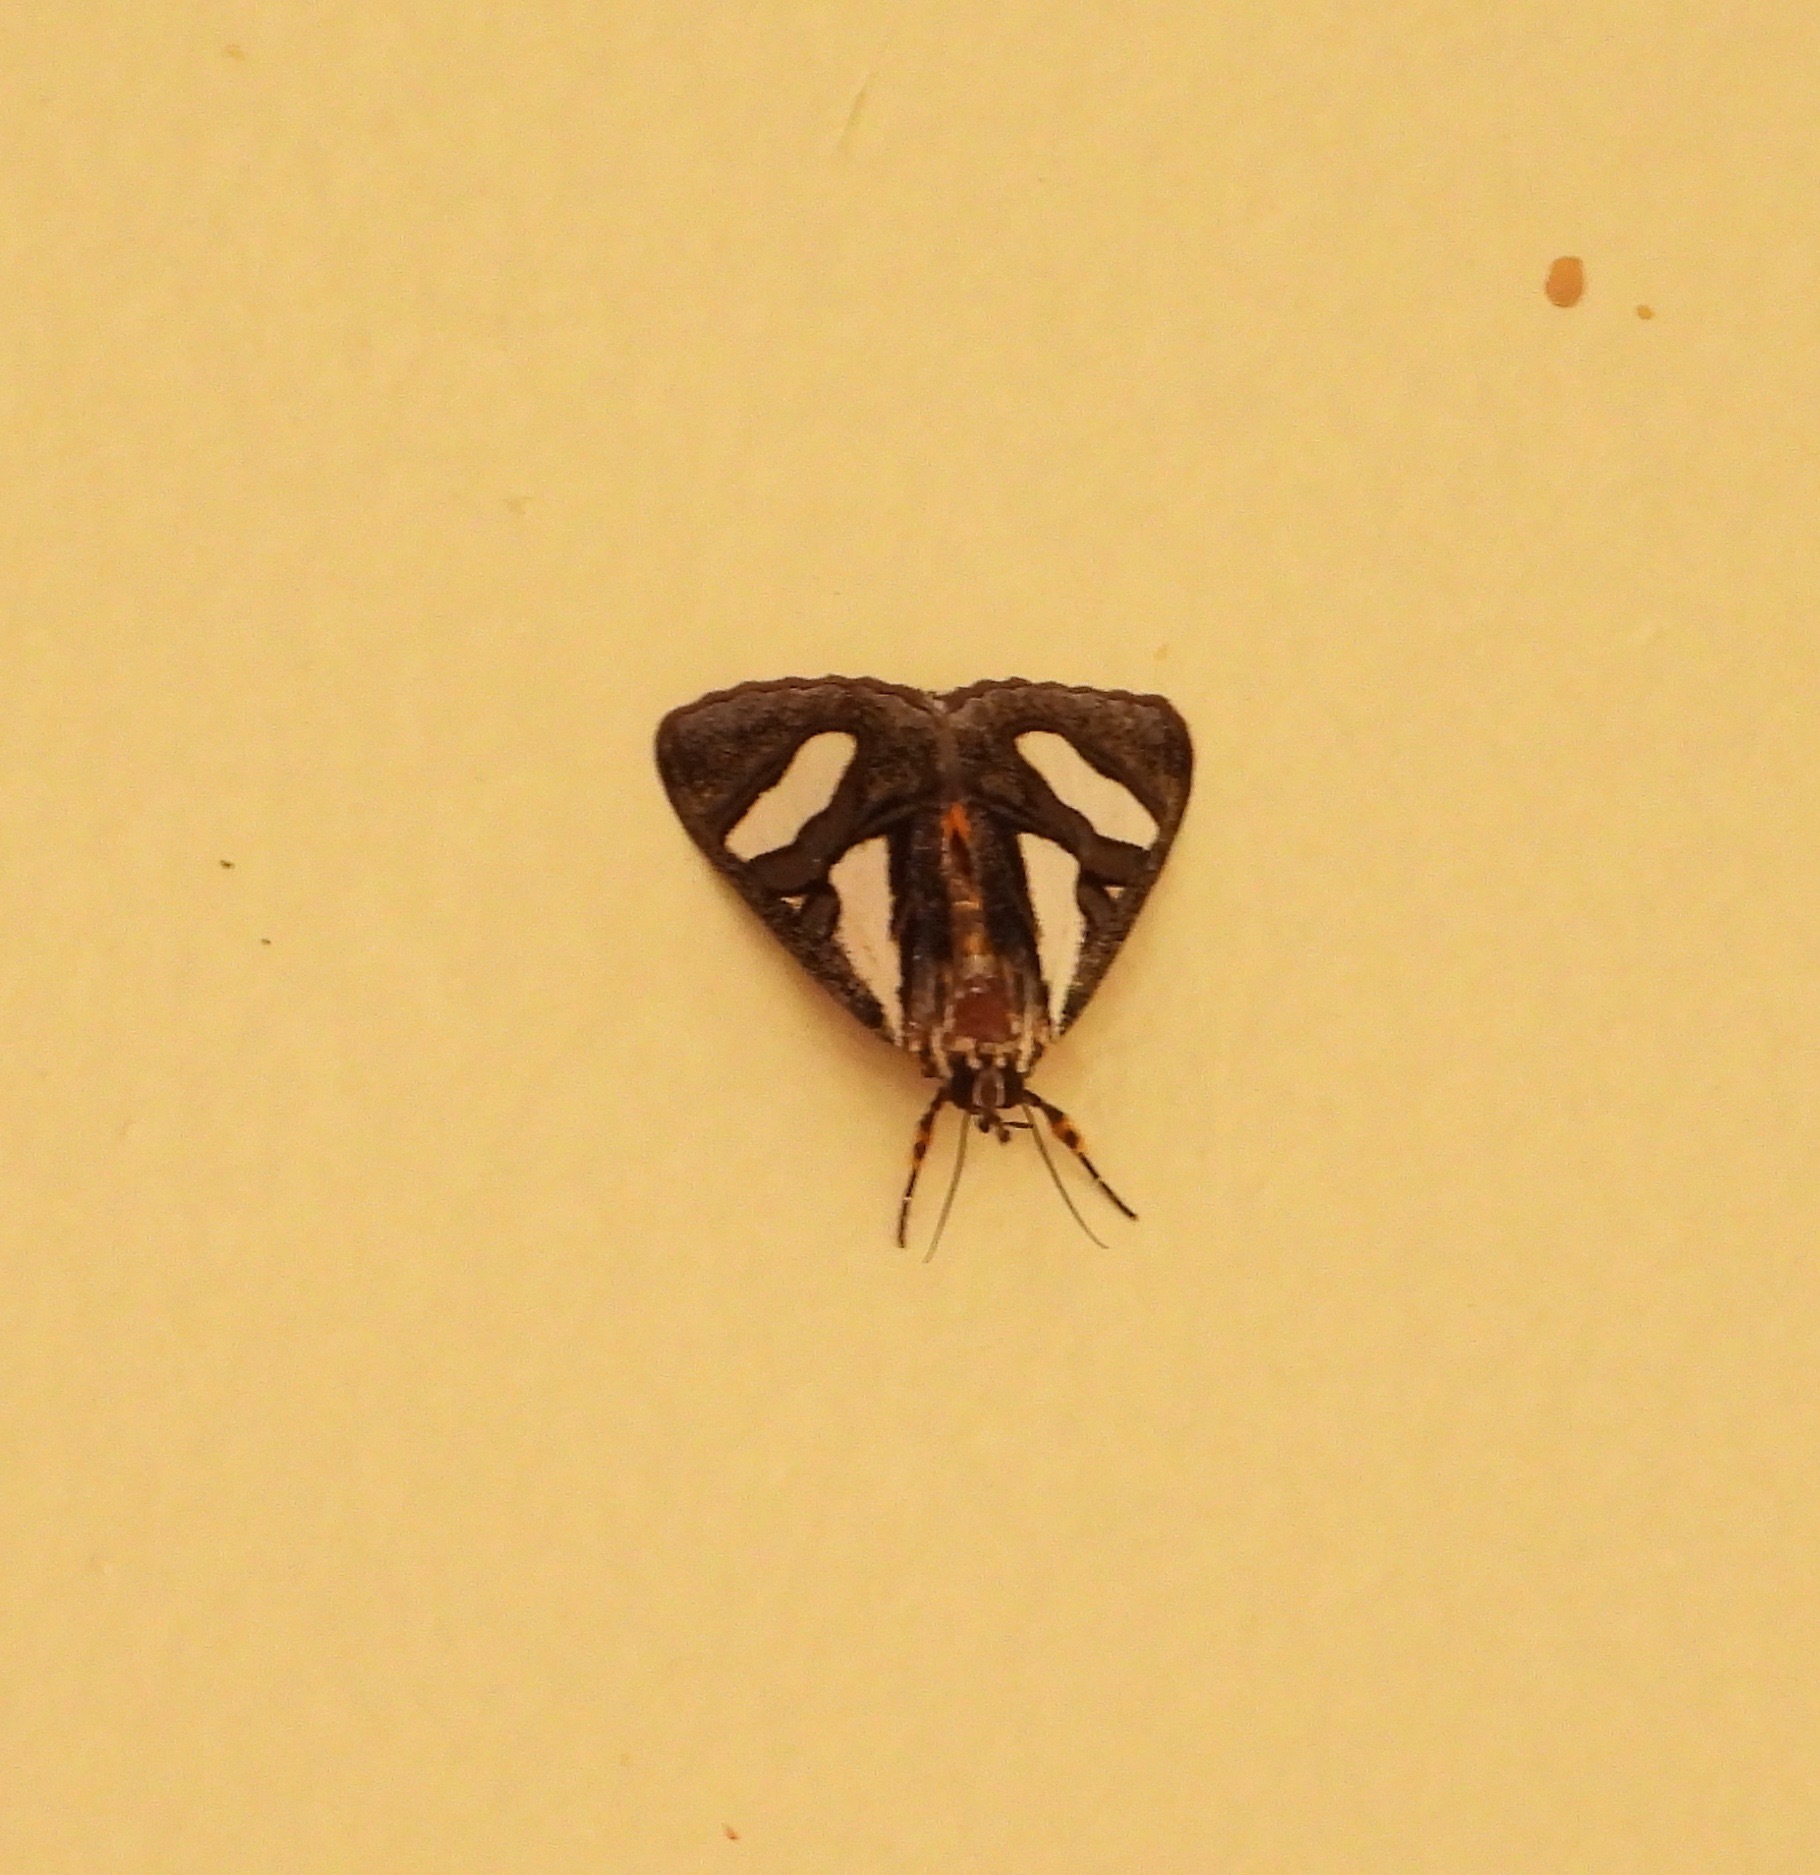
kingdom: Animalia
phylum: Arthropoda
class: Insecta
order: Lepidoptera
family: Noctuidae
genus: Agoma
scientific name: Agoma trimenii
